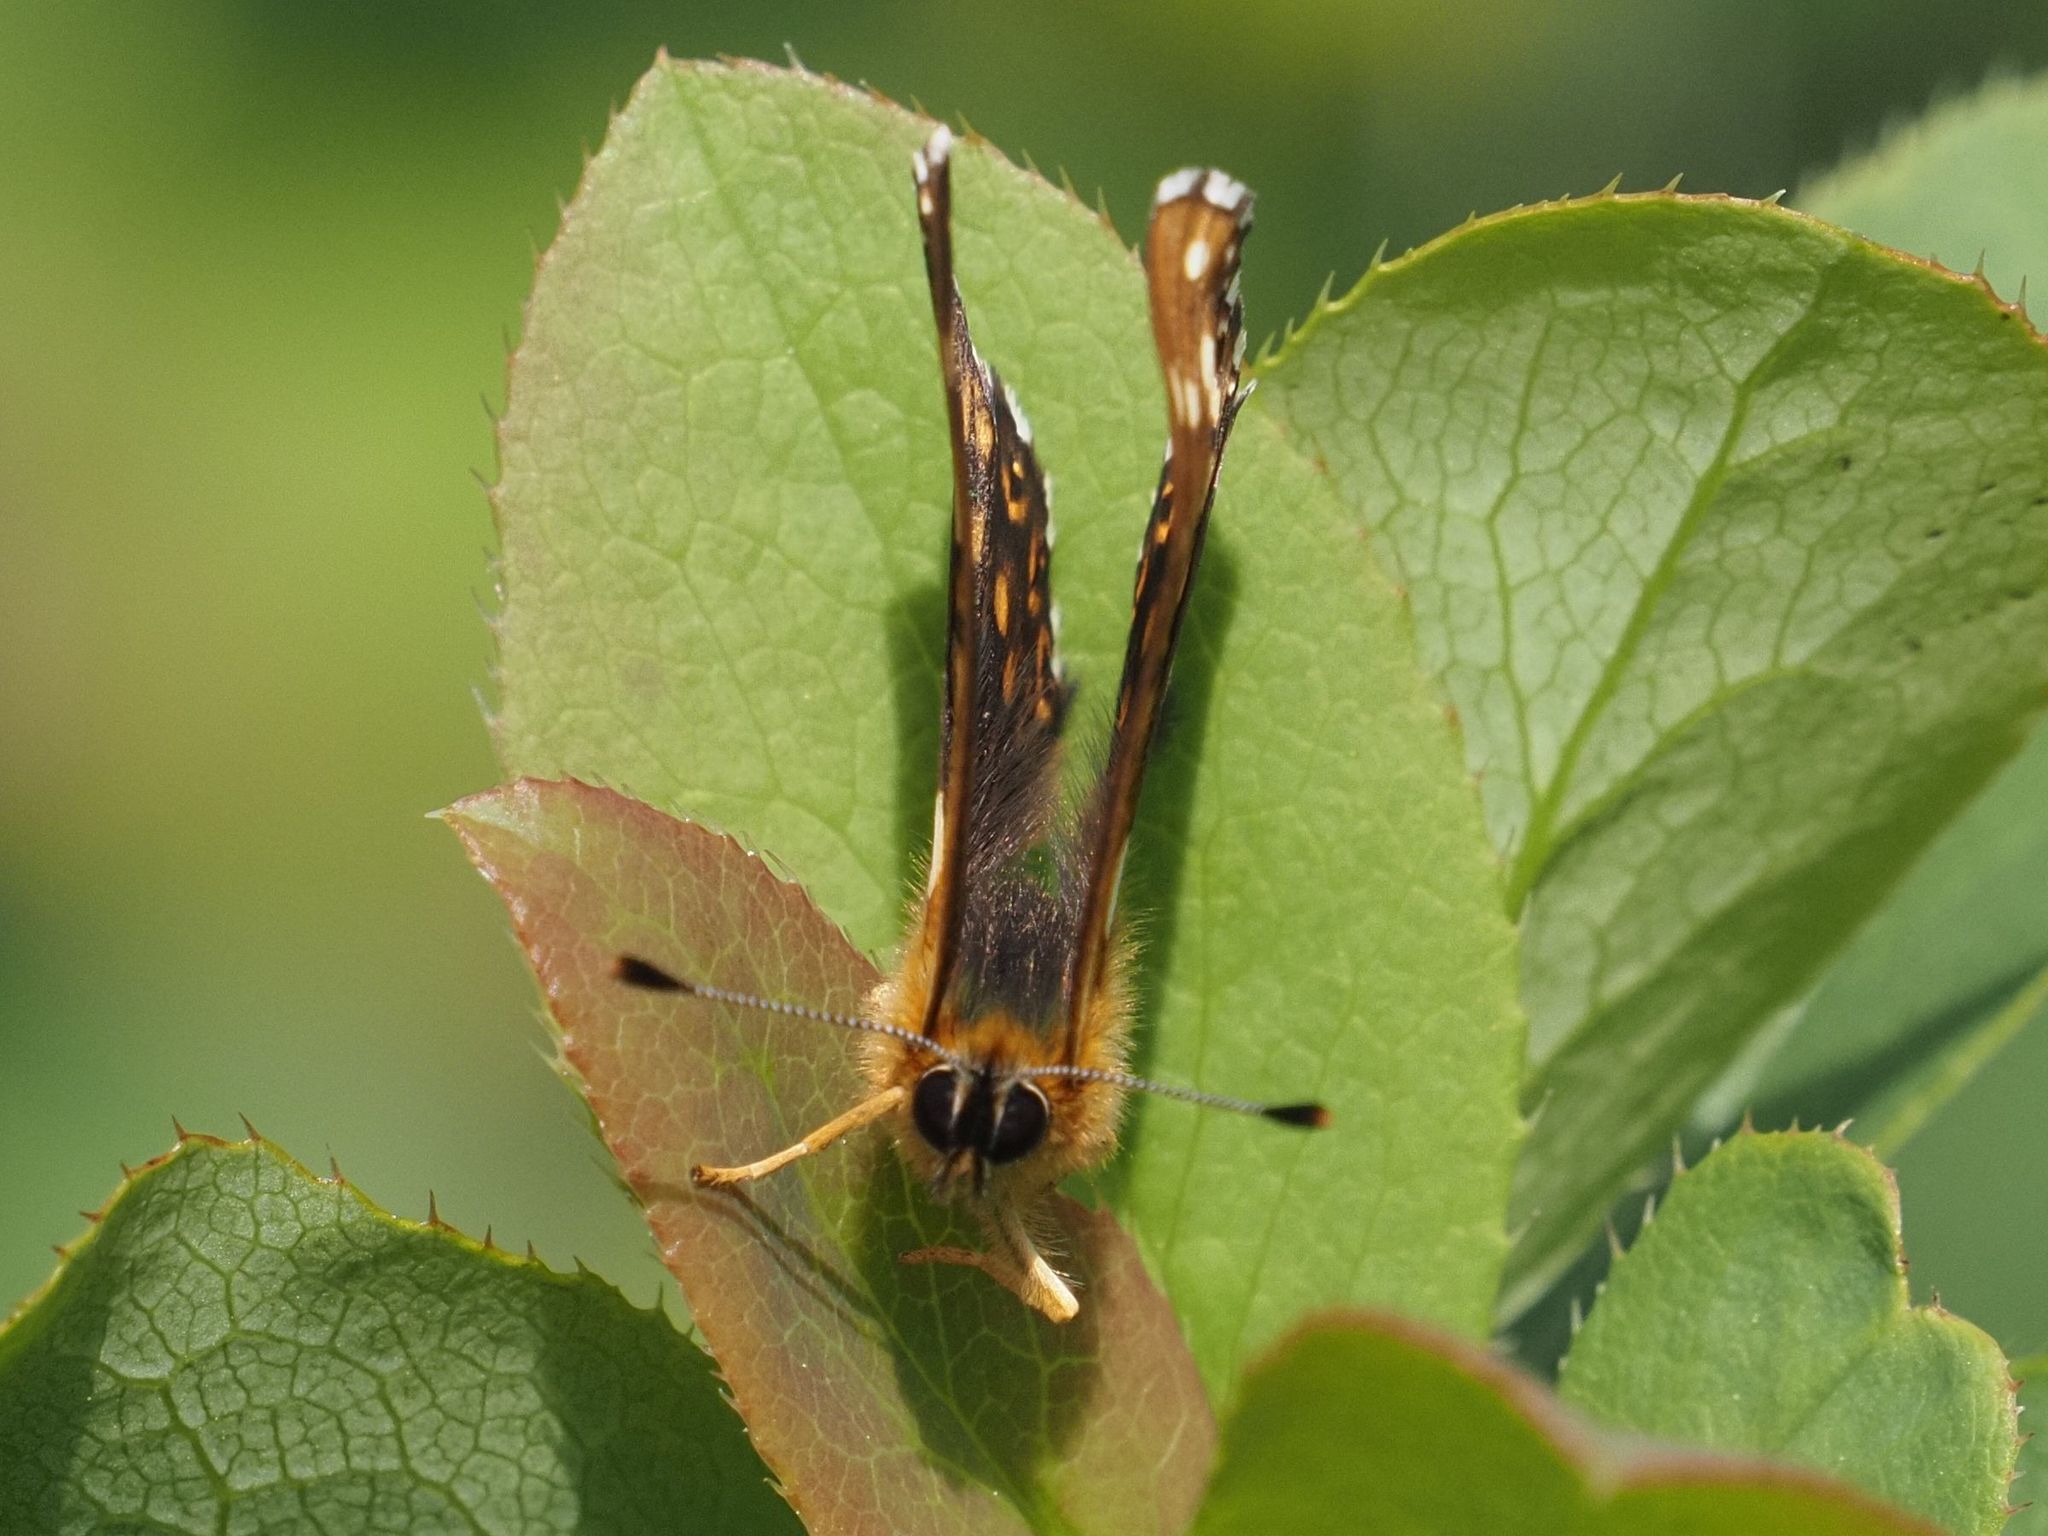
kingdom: Animalia
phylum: Arthropoda
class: Insecta
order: Lepidoptera
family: Riodinidae
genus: Hamearis
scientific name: Hamearis lucina
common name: Duke of burgundy fritillary
